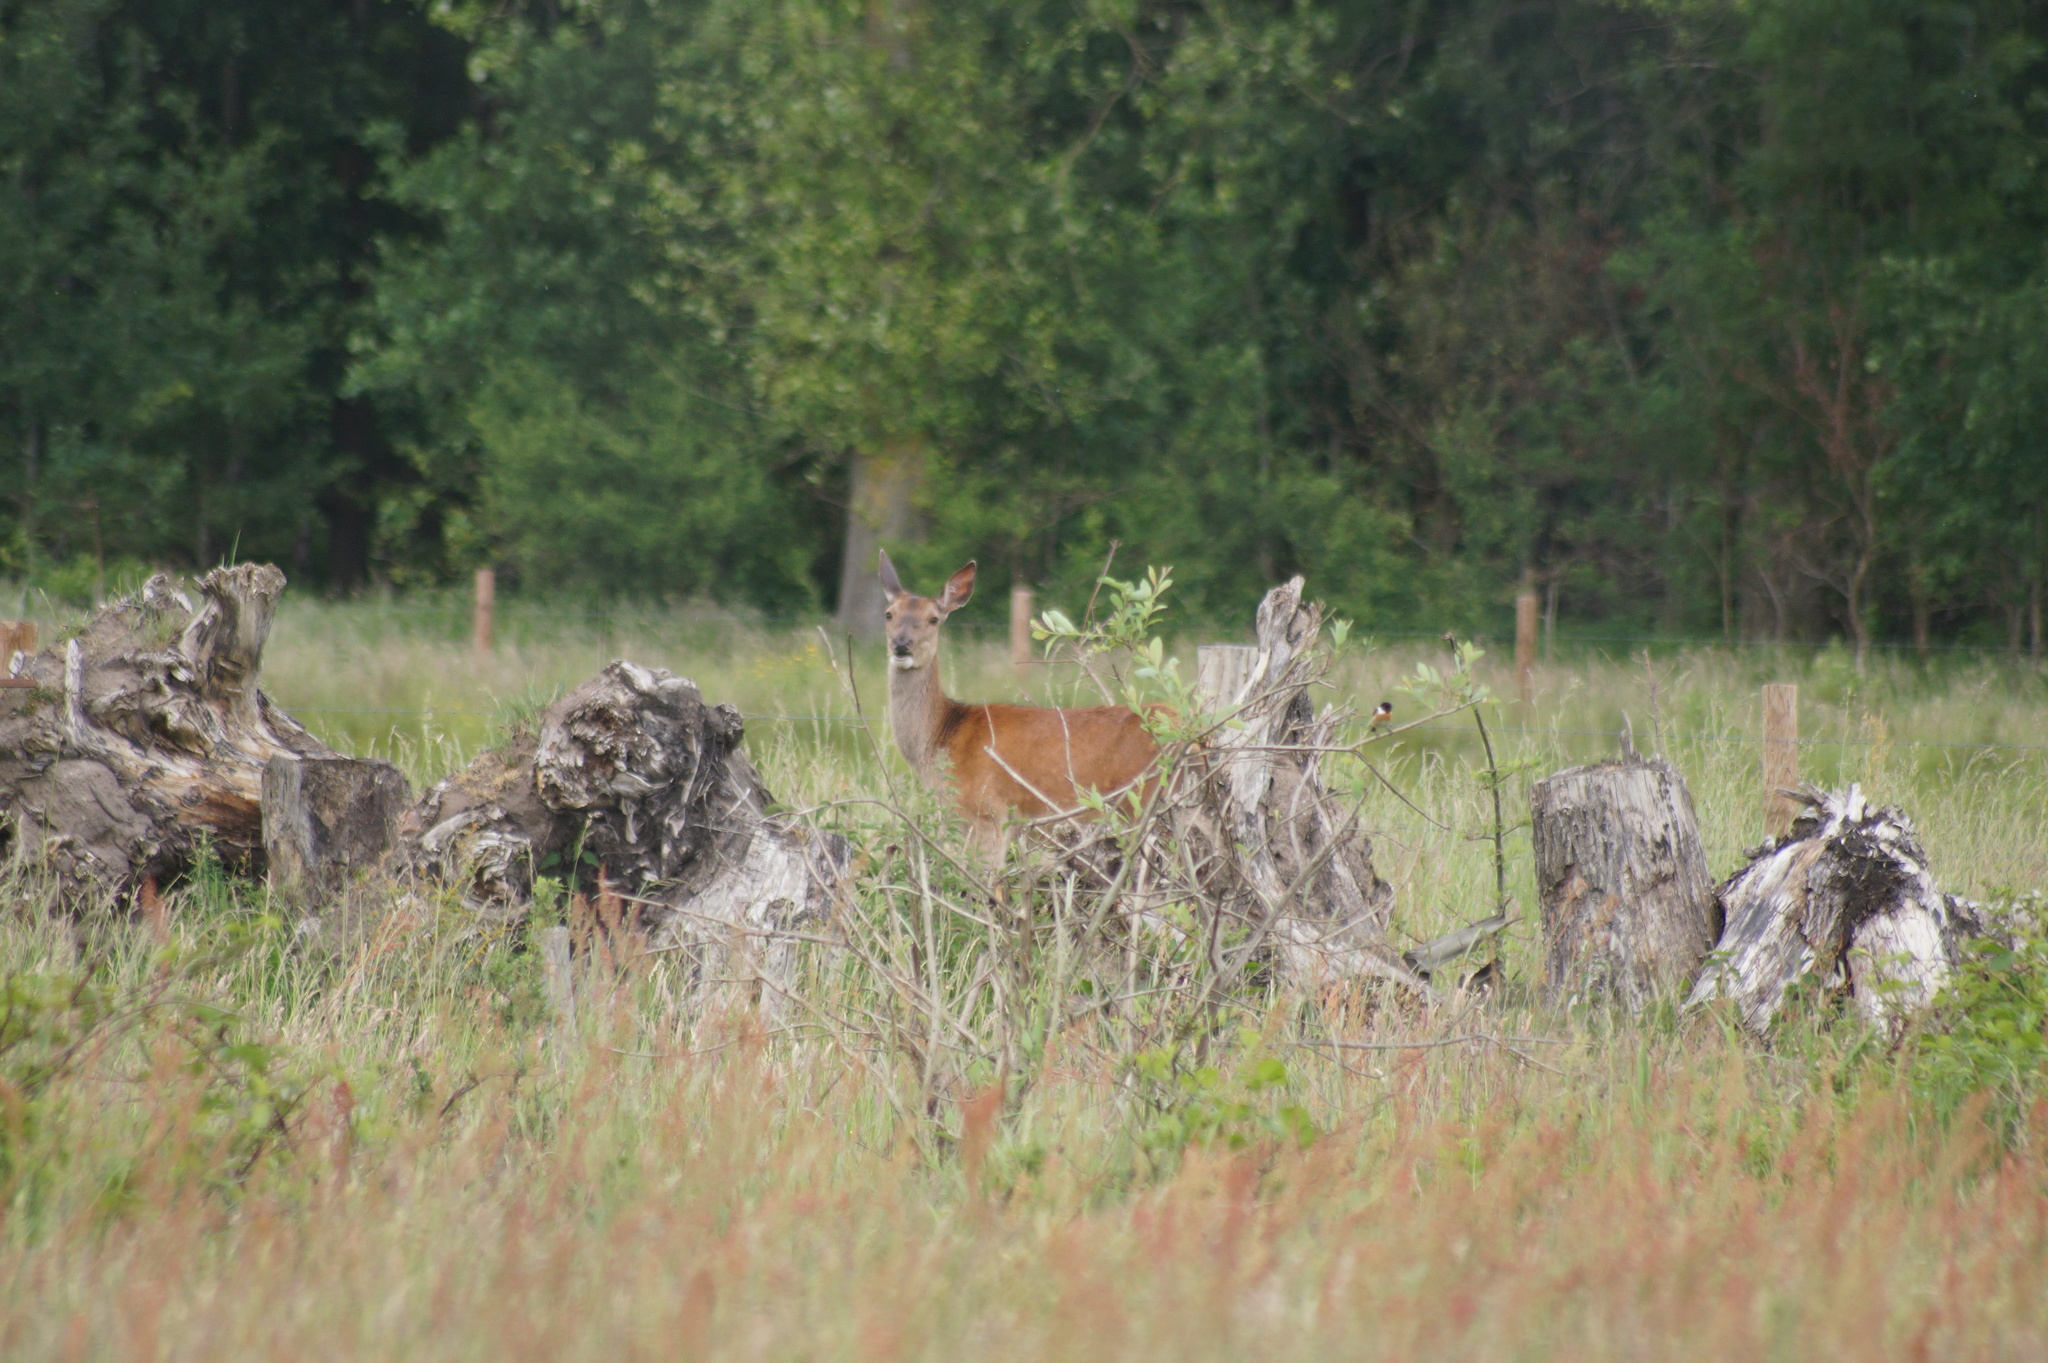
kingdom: Animalia
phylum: Chordata
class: Mammalia
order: Artiodactyla
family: Cervidae
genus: Cervus
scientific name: Cervus elaphus
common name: Red deer
